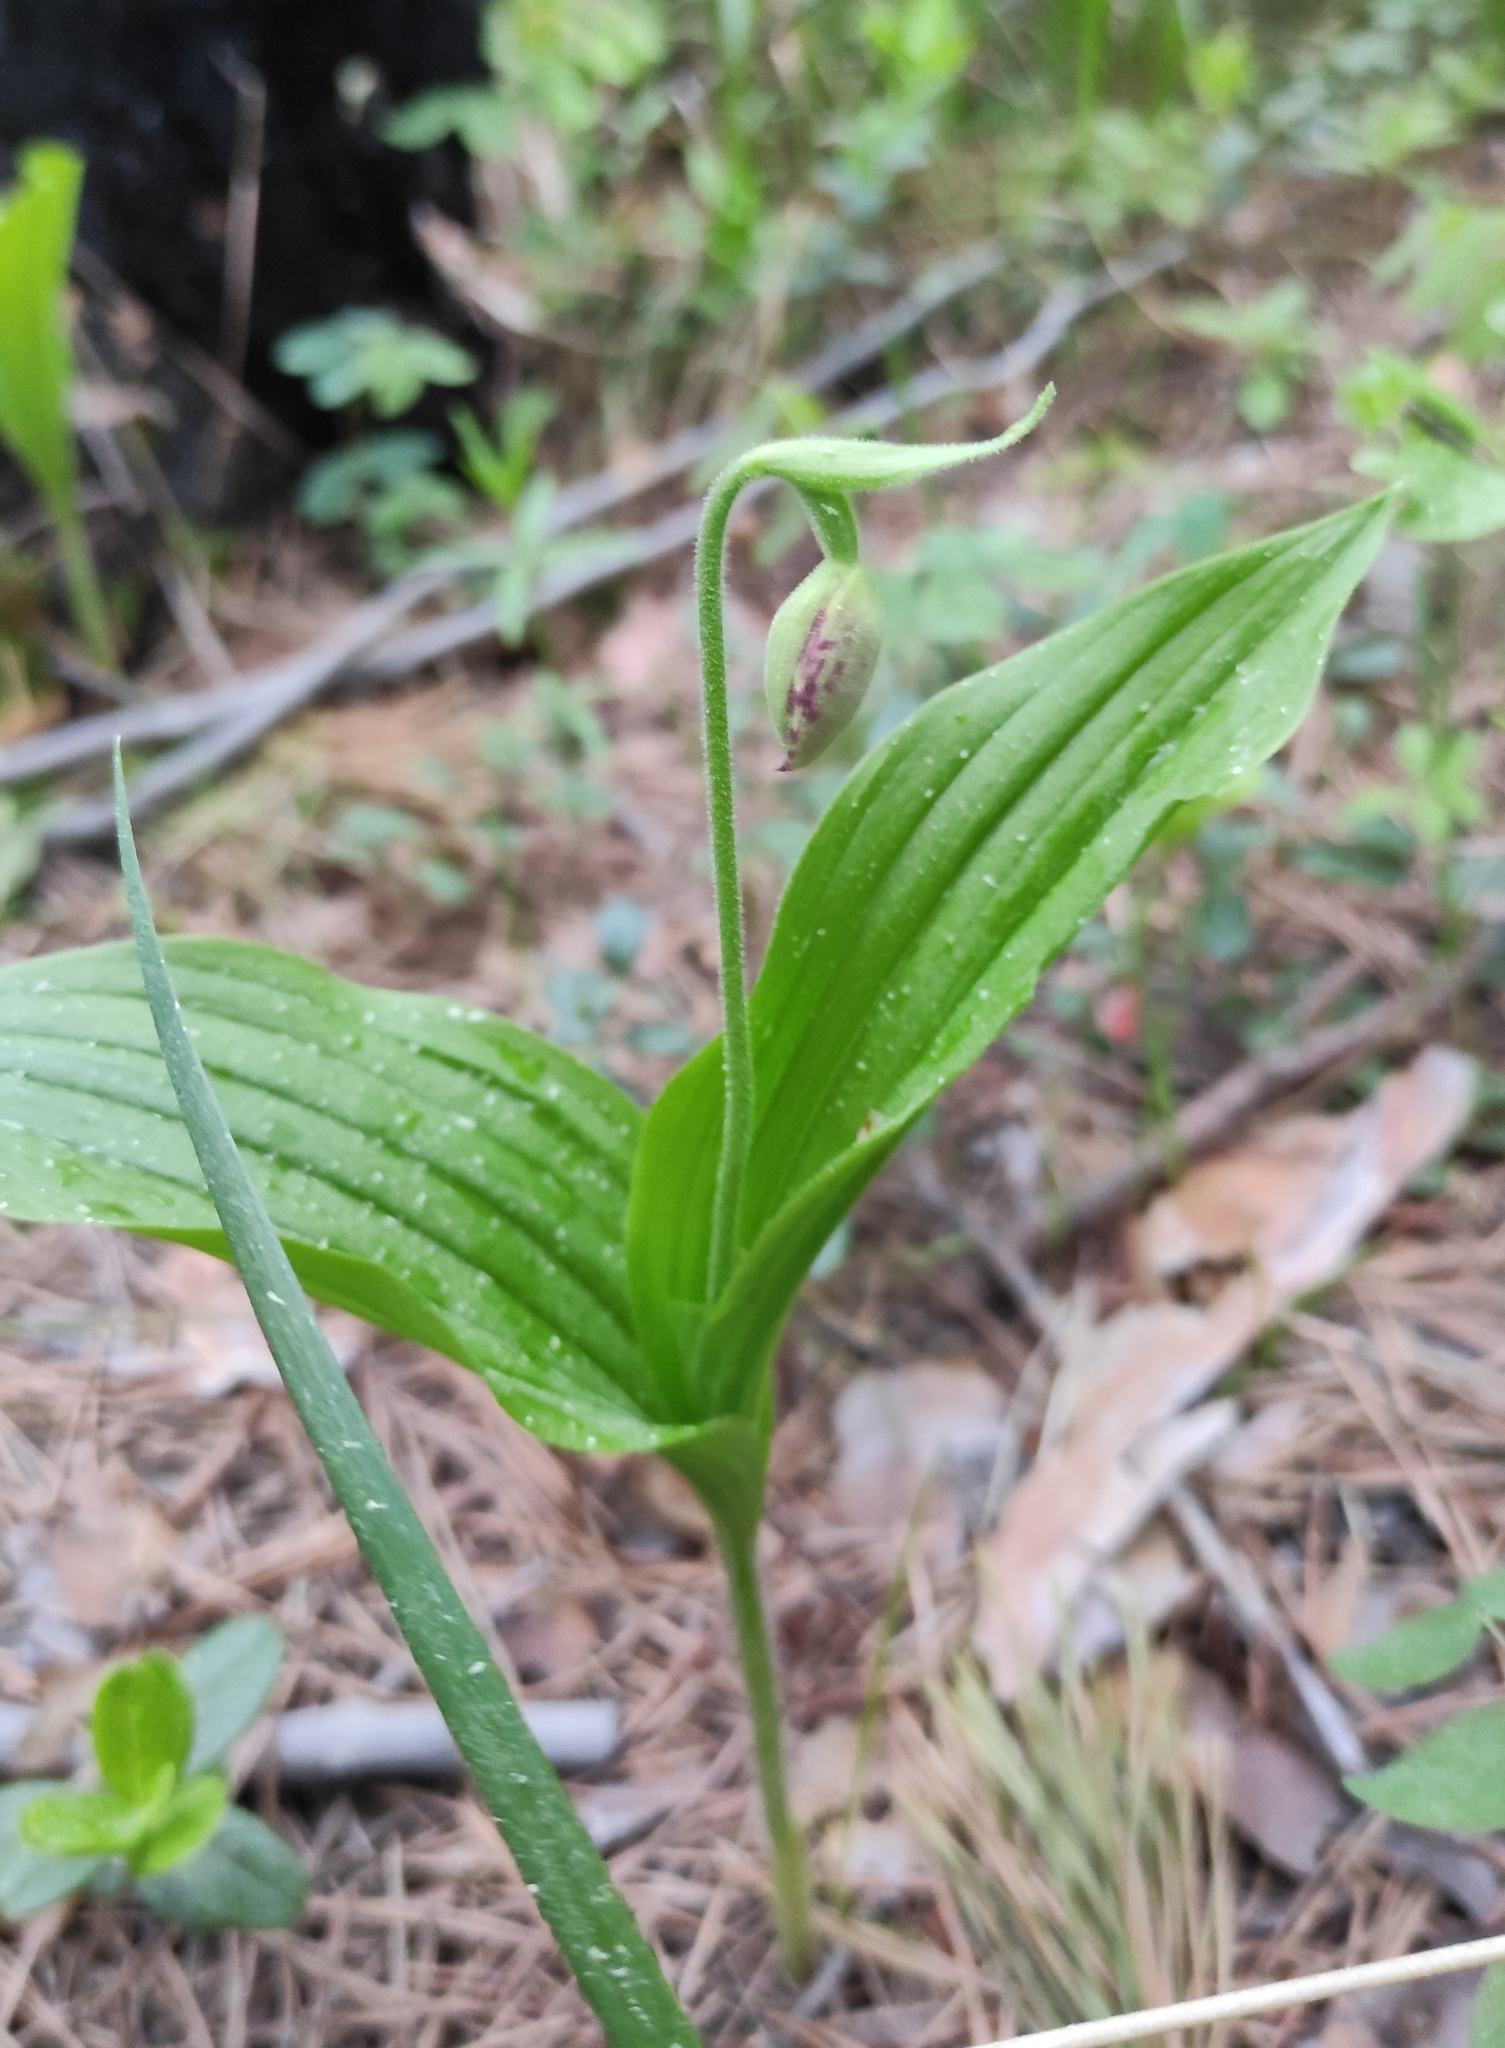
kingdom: Plantae
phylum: Tracheophyta
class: Liliopsida
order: Asparagales
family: Orchidaceae
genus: Cypripedium
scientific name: Cypripedium guttatum
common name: Pink lady slipper
